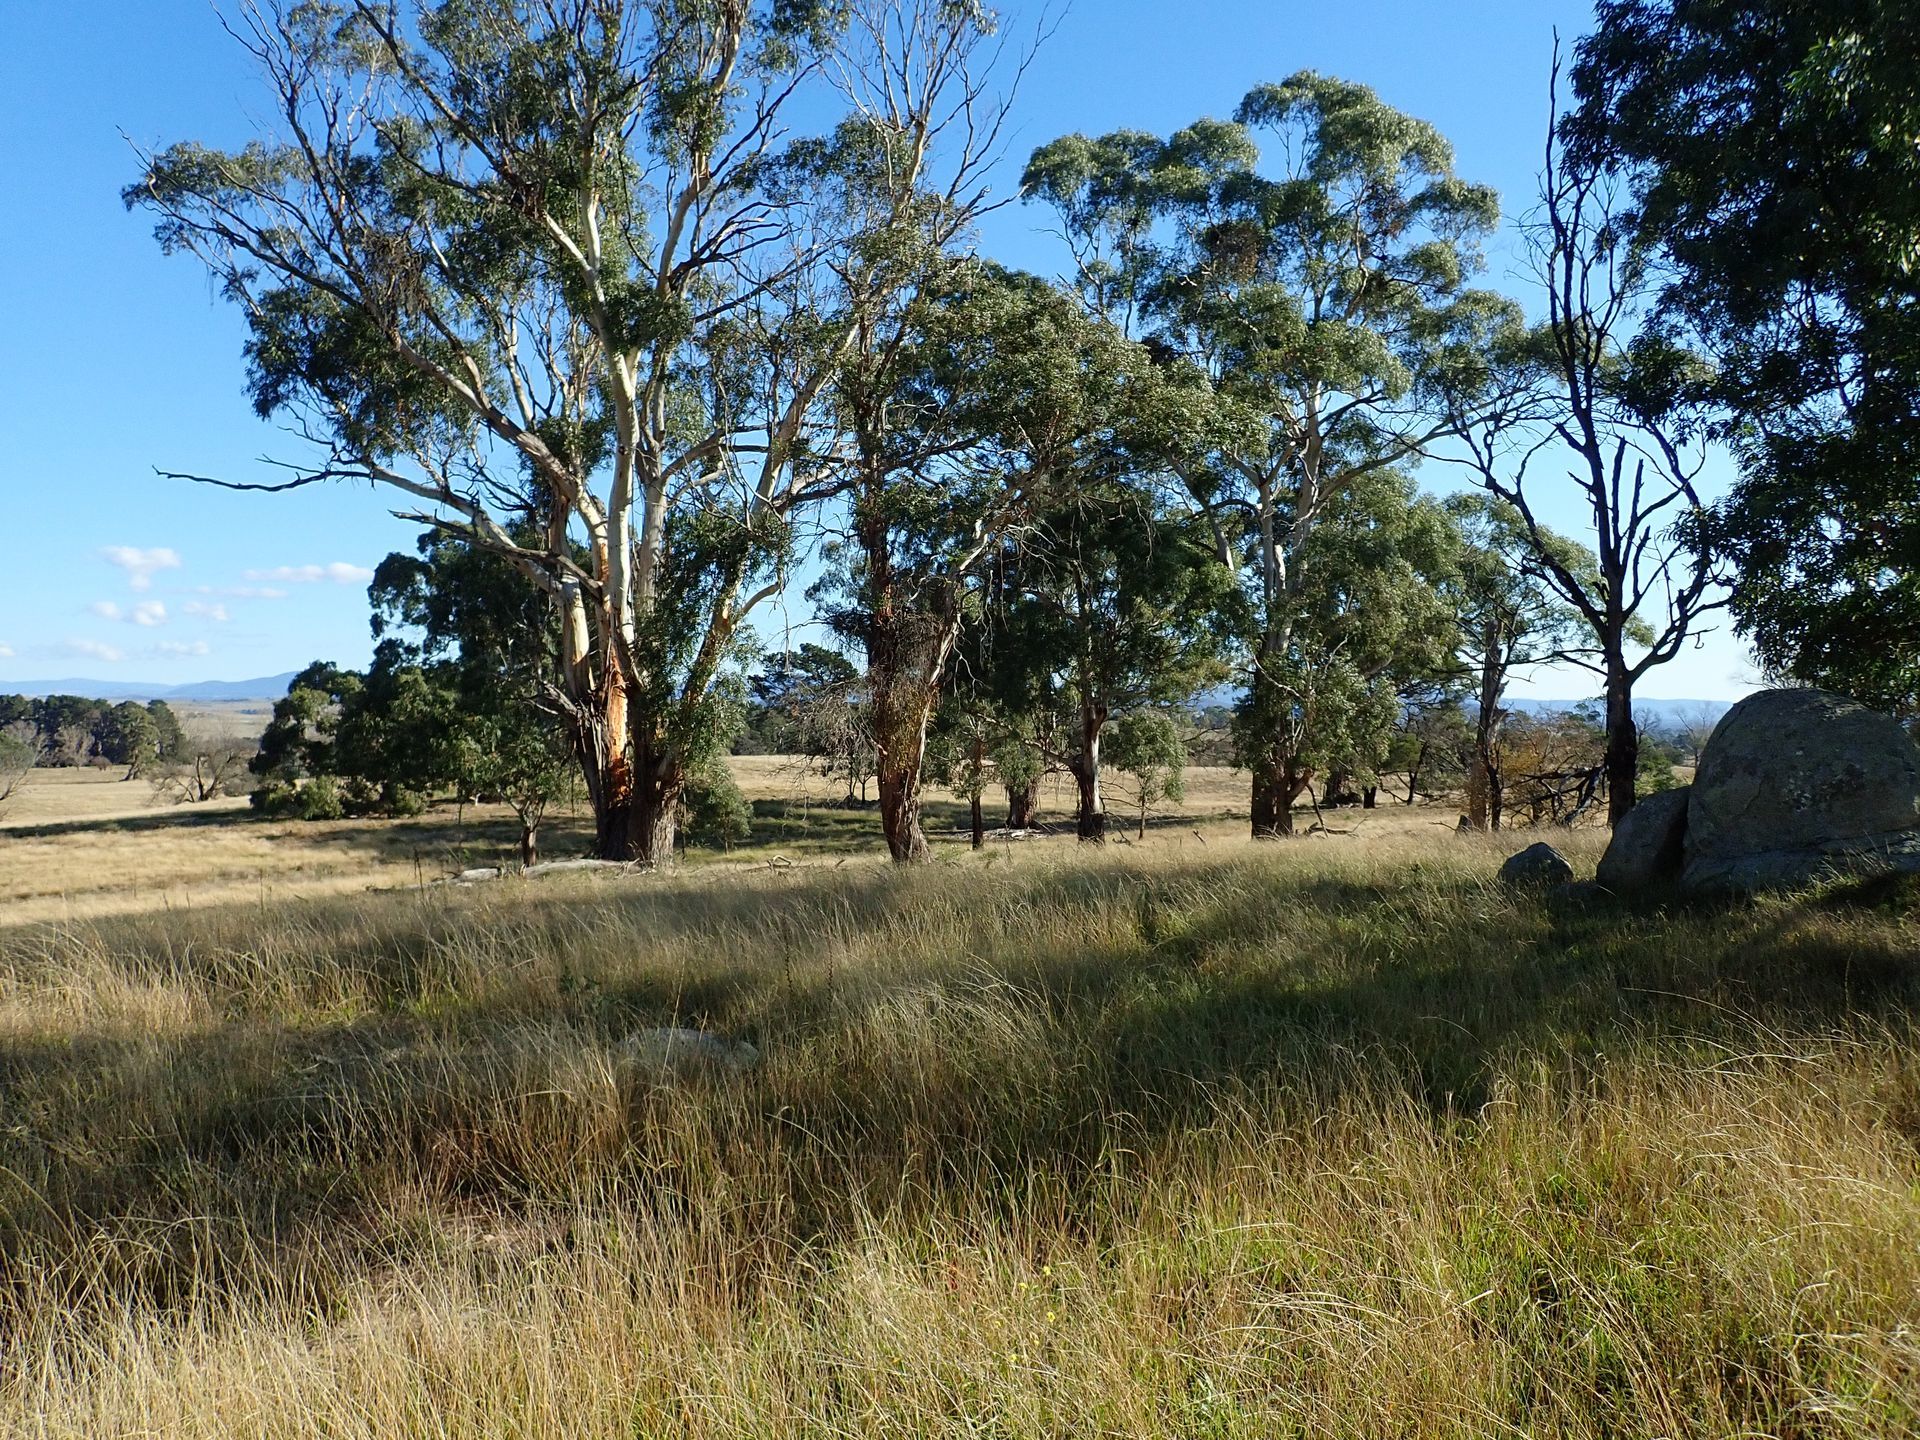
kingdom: Plantae
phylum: Tracheophyta
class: Magnoliopsida
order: Myrtales
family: Myrtaceae
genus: Eucalyptus
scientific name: Eucalyptus viminalis
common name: Manna gum
